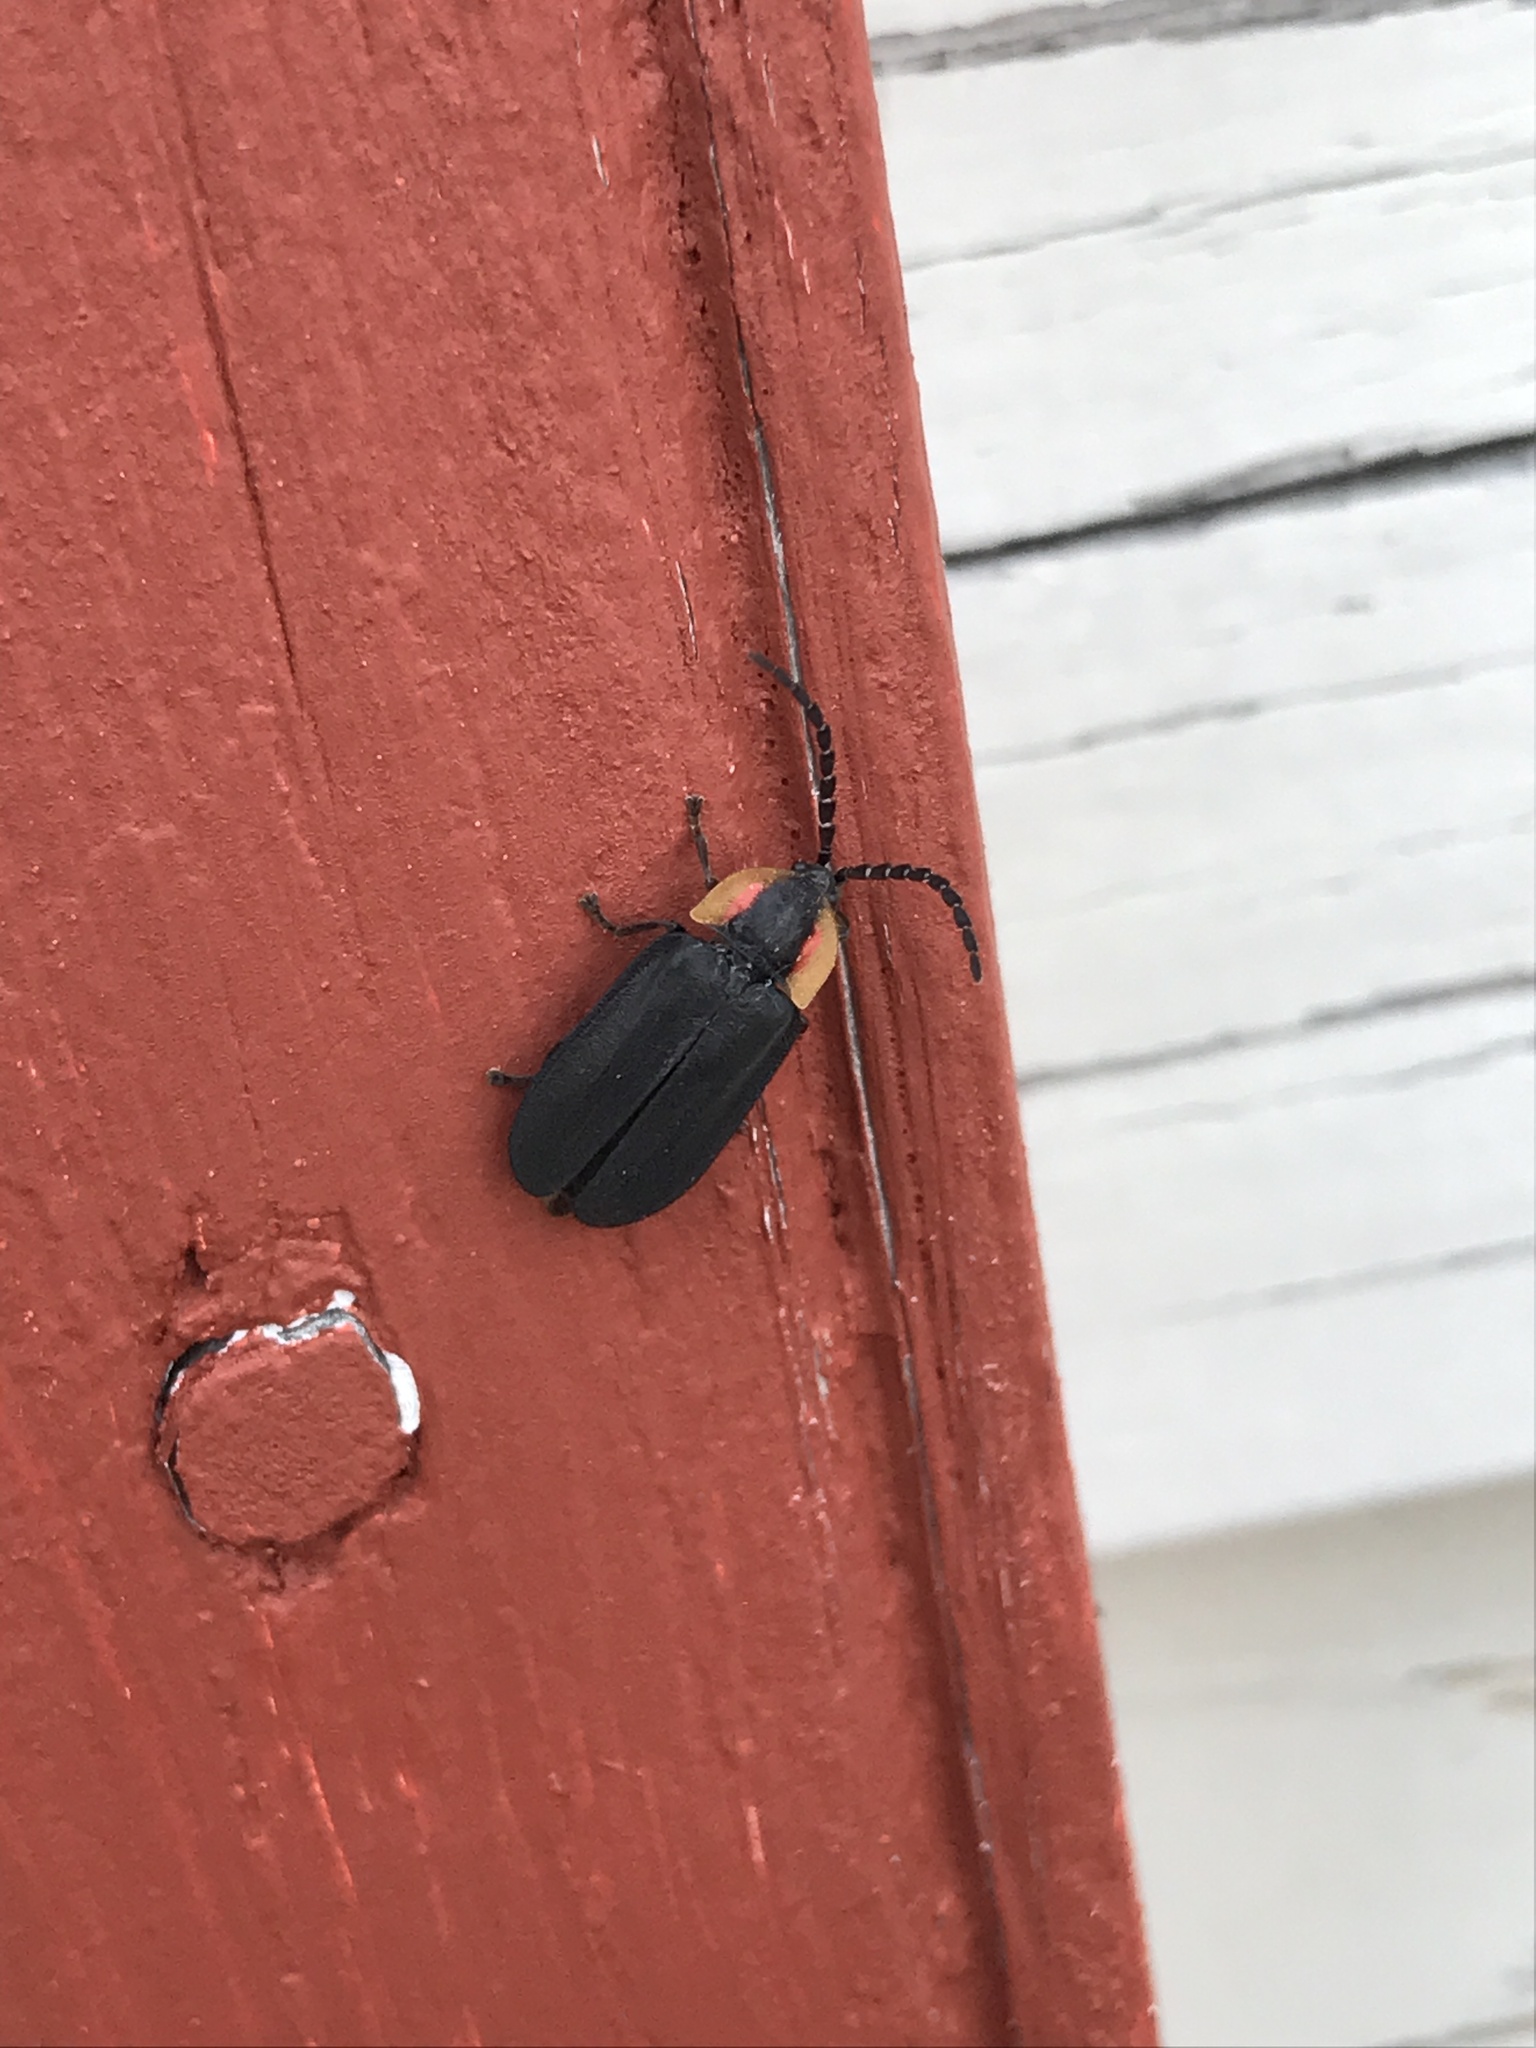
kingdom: Animalia
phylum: Arthropoda
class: Insecta
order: Coleoptera
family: Lampyridae
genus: Lucidota
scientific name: Lucidota atra
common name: Black firefly
